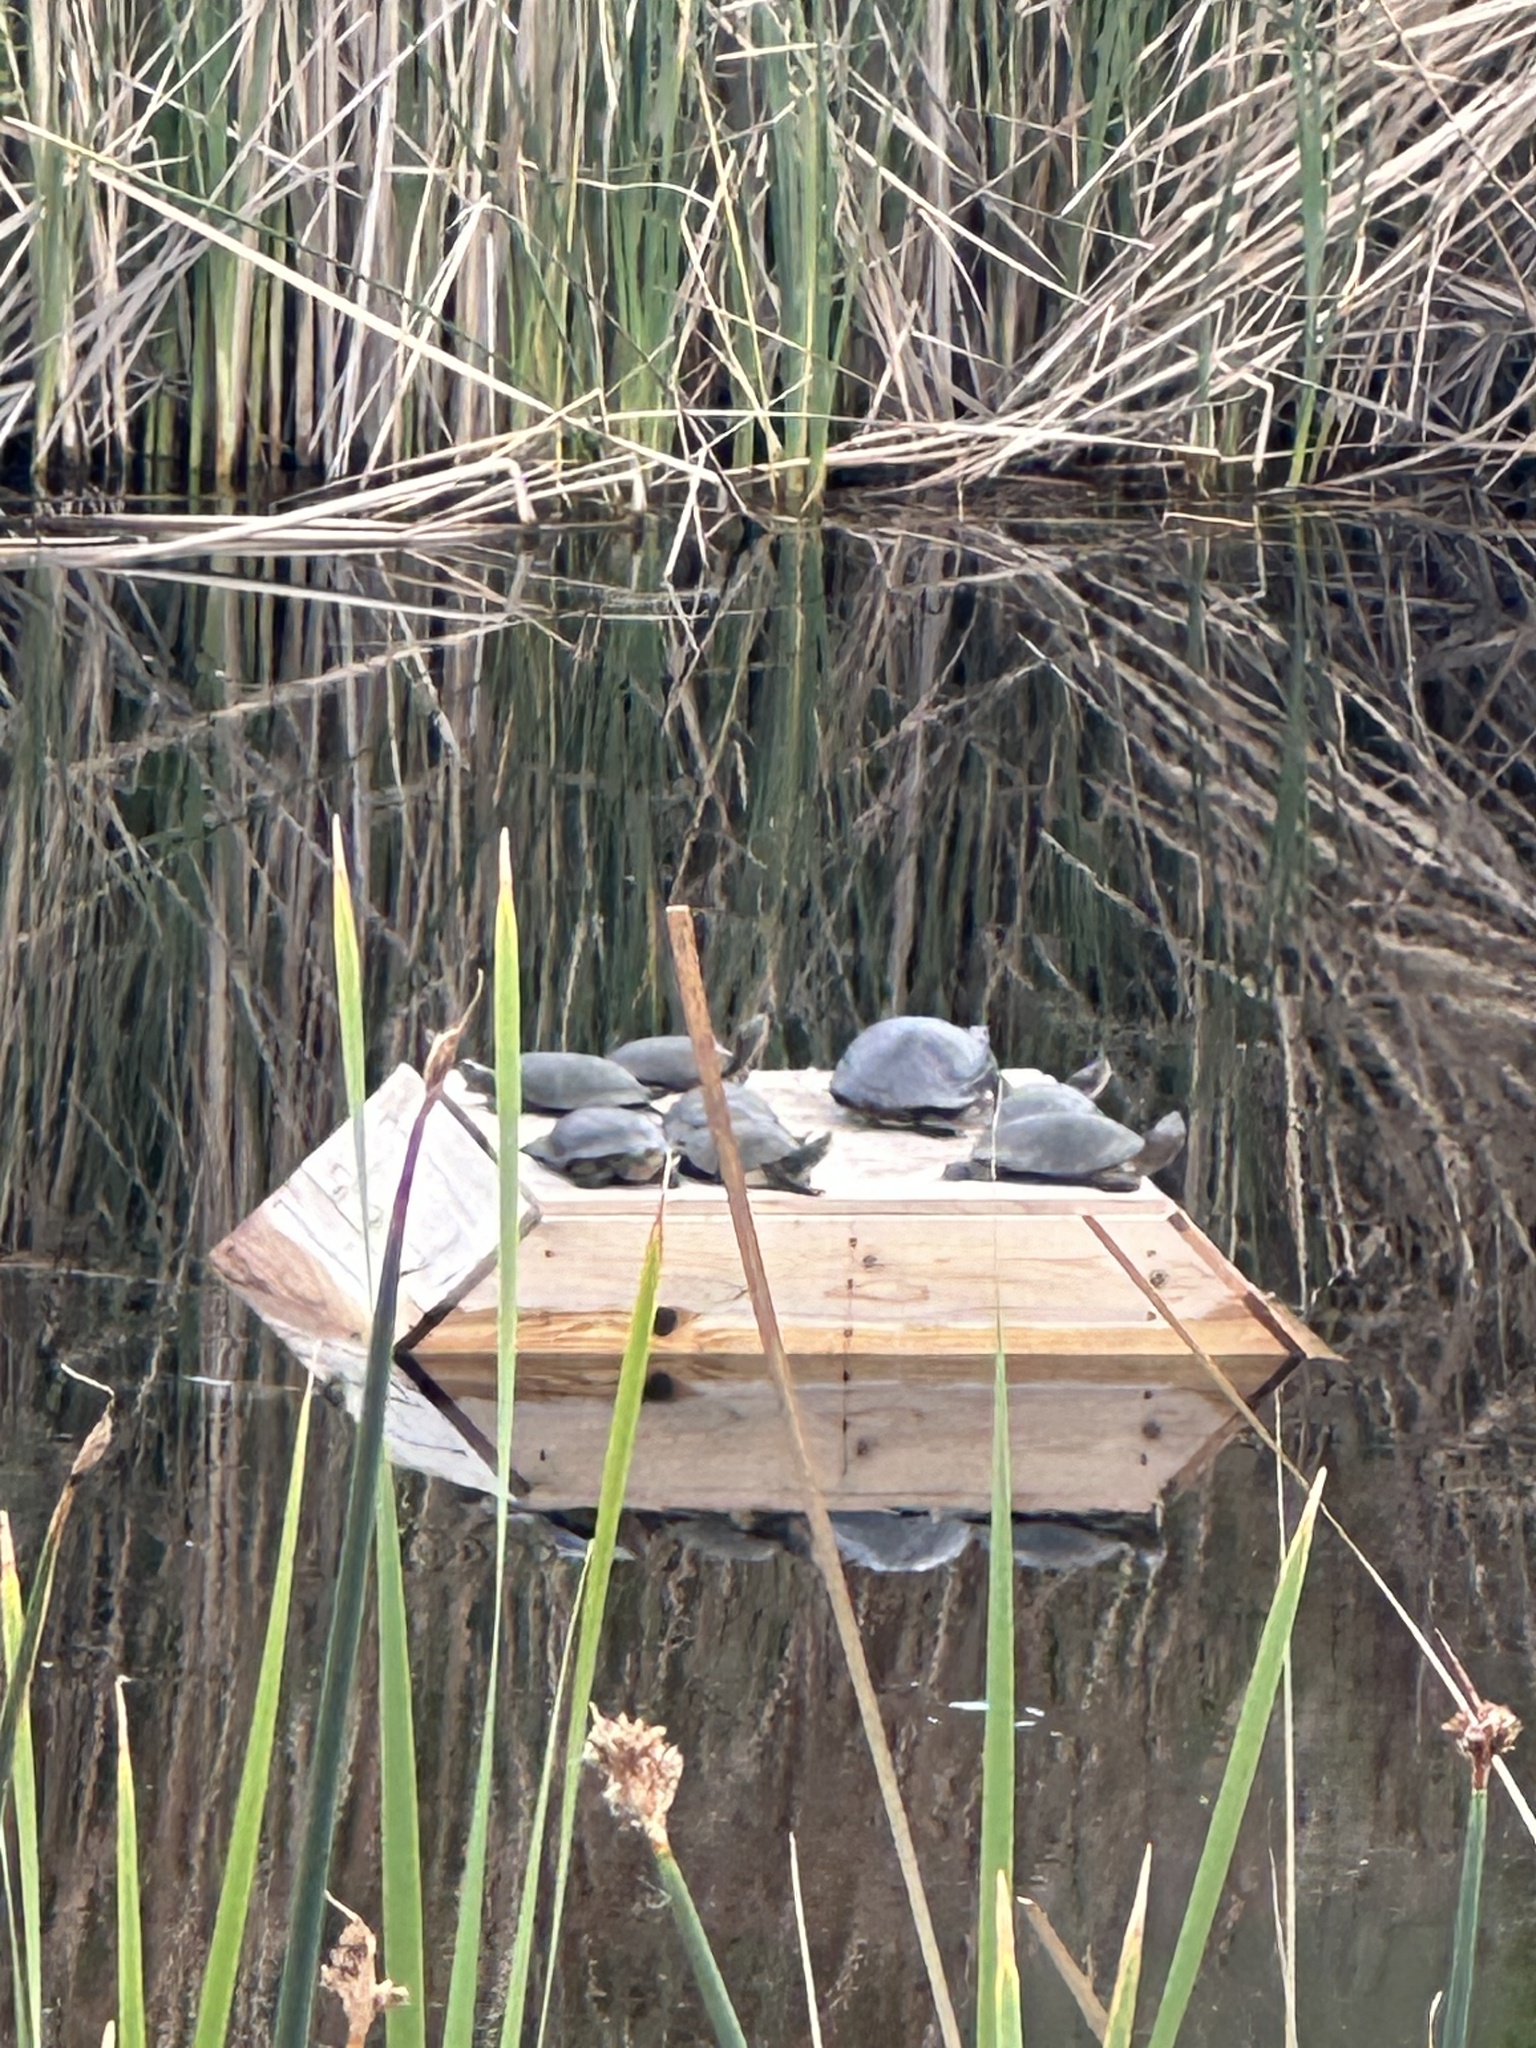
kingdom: Animalia
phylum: Chordata
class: Testudines
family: Emydidae
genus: Actinemys
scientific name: Actinemys marmorata
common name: Western pond turtle
